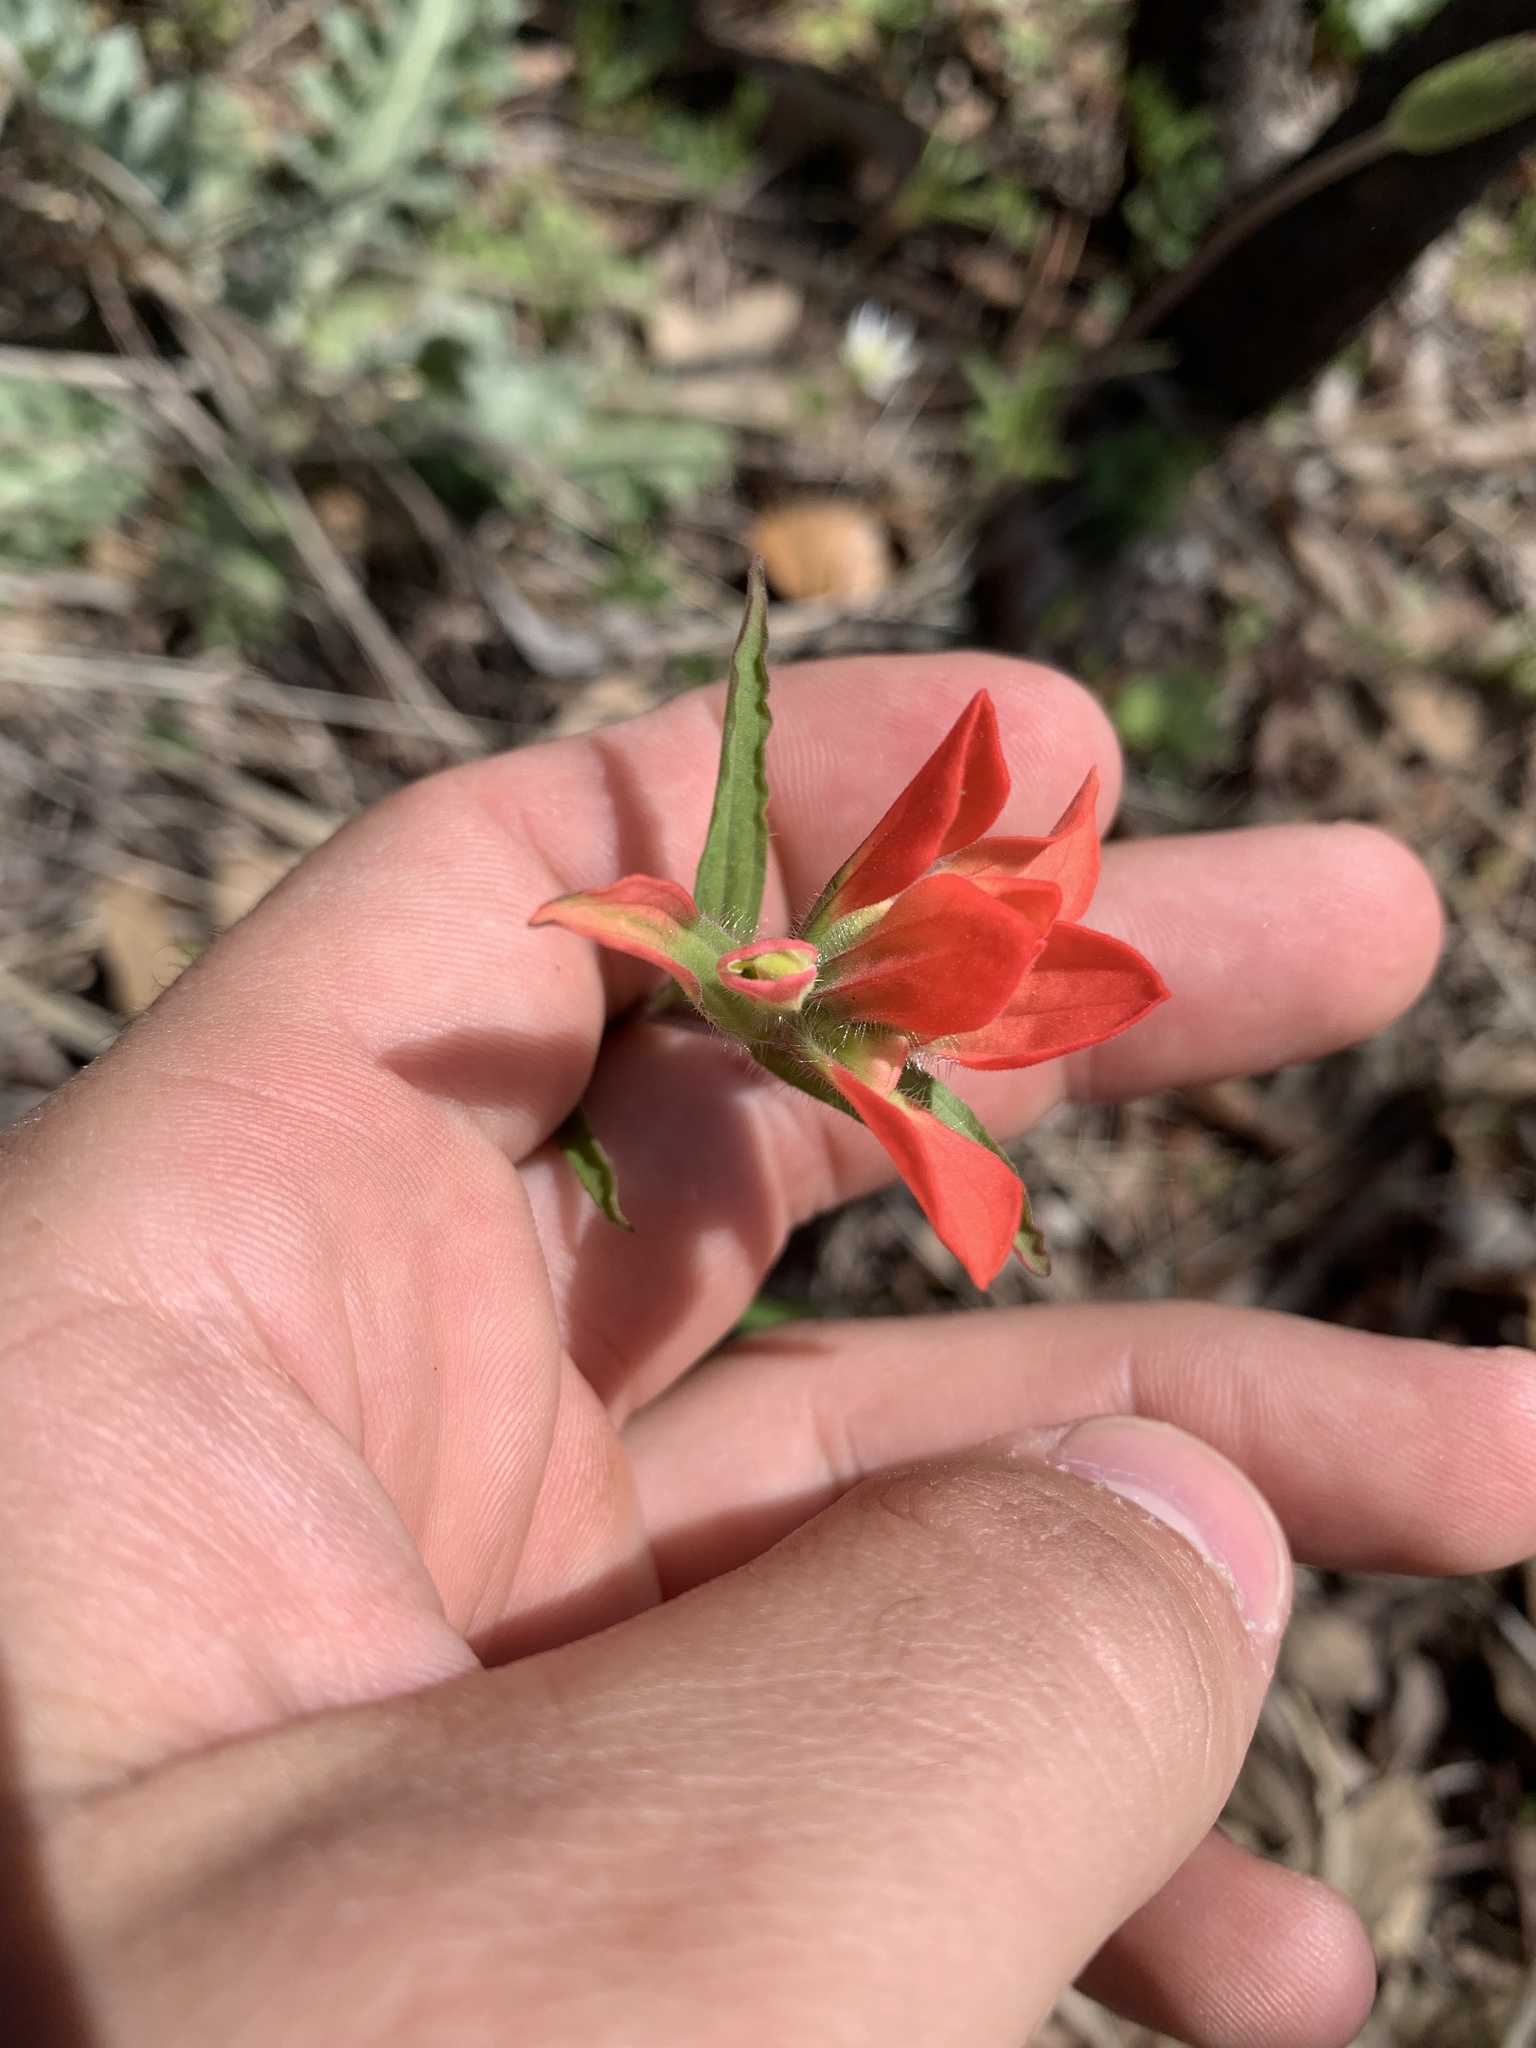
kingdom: Plantae
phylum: Tracheophyta
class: Magnoliopsida
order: Lamiales
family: Orobanchaceae
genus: Castilleja
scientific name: Castilleja indivisa
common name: Texas paintbrush
